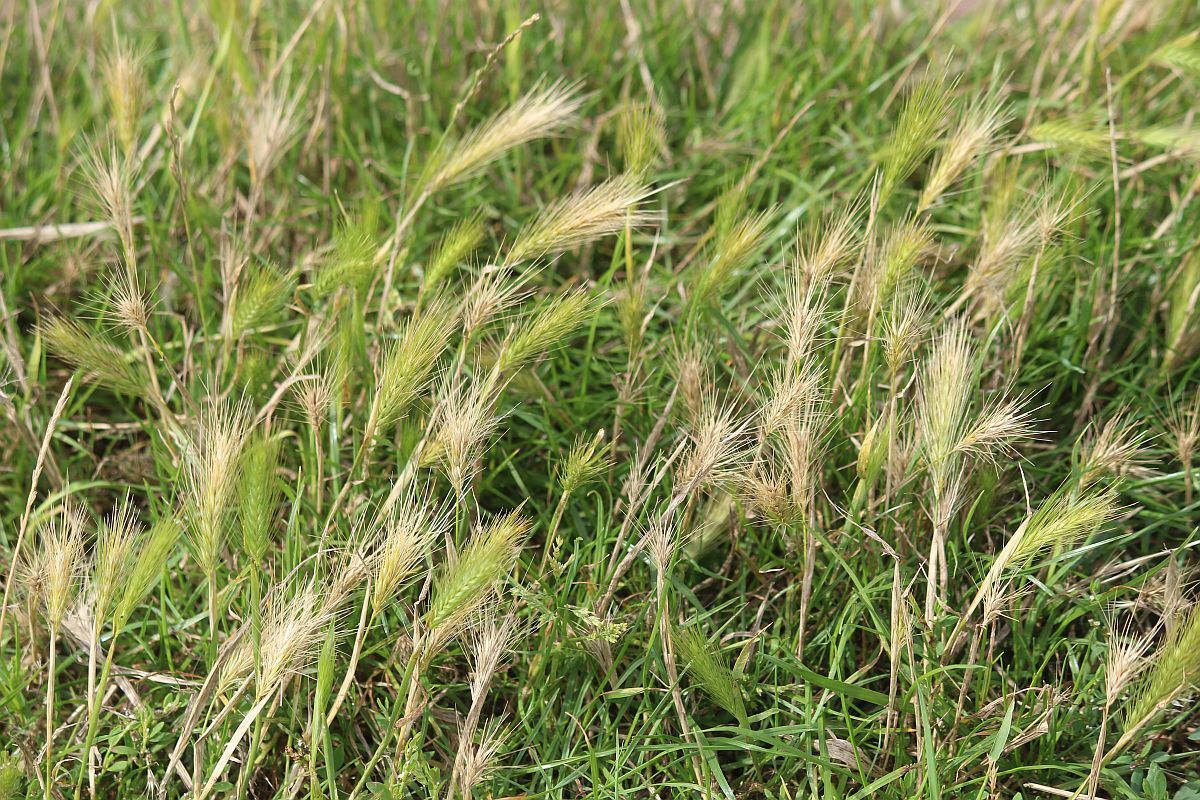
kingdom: Plantae
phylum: Tracheophyta
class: Liliopsida
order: Poales
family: Poaceae
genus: Hordeum
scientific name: Hordeum murinum
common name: Wall barley
